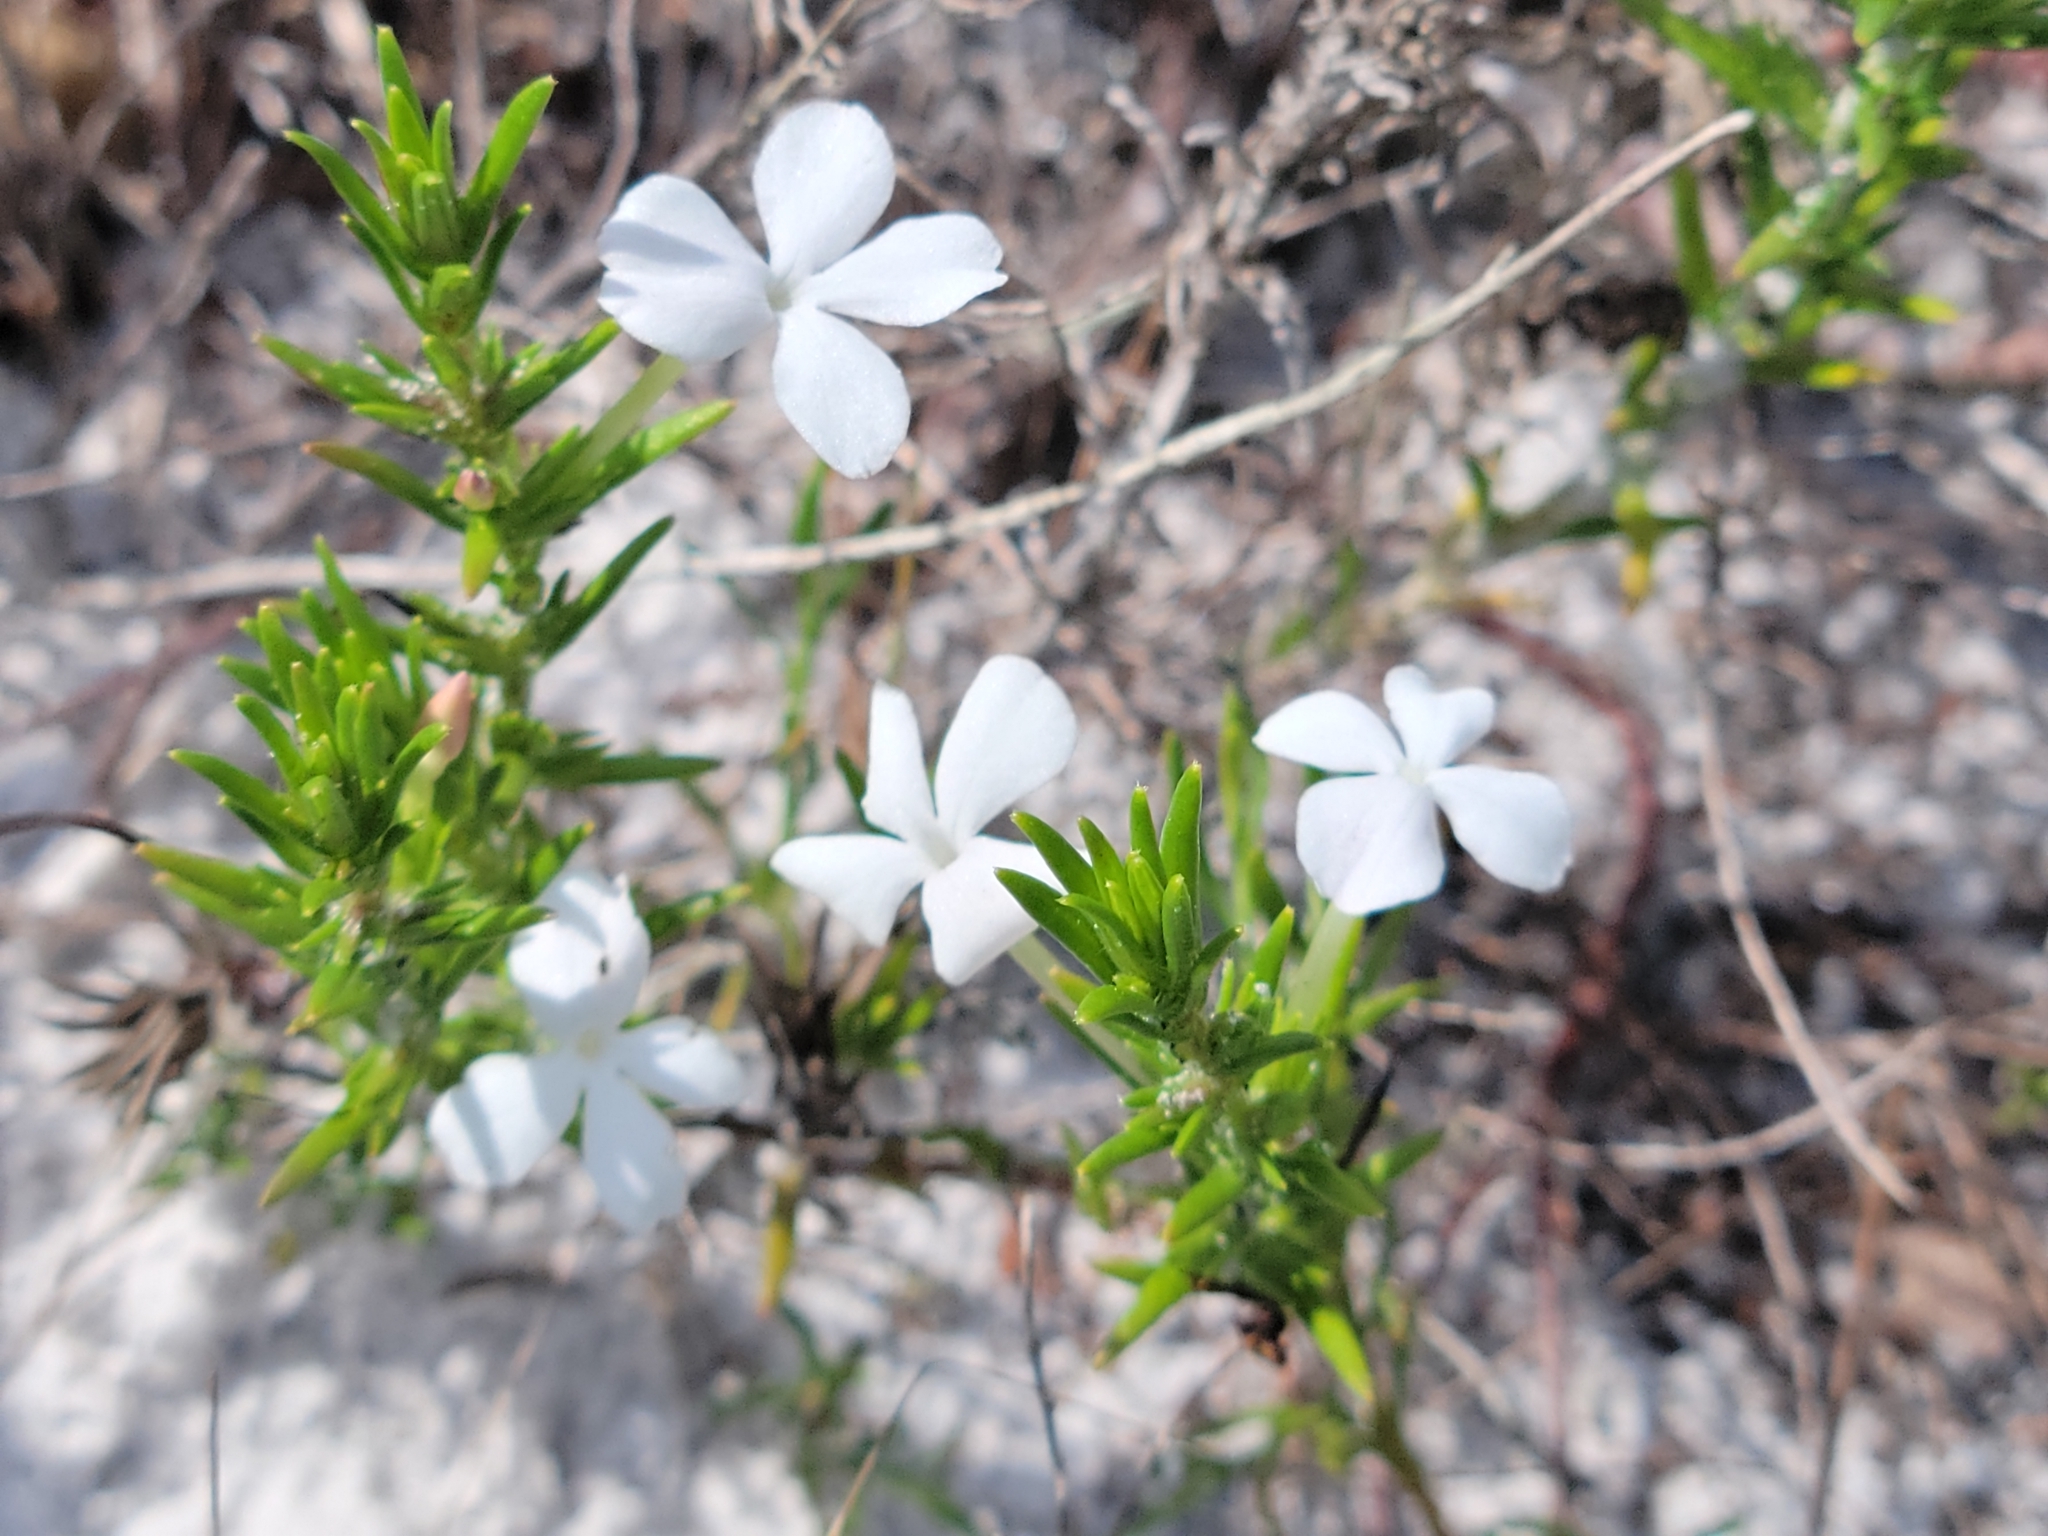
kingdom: Plantae
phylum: Tracheophyta
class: Magnoliopsida
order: Lamiales
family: Plantaginaceae
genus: Gratiola
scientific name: Gratiola hispida
